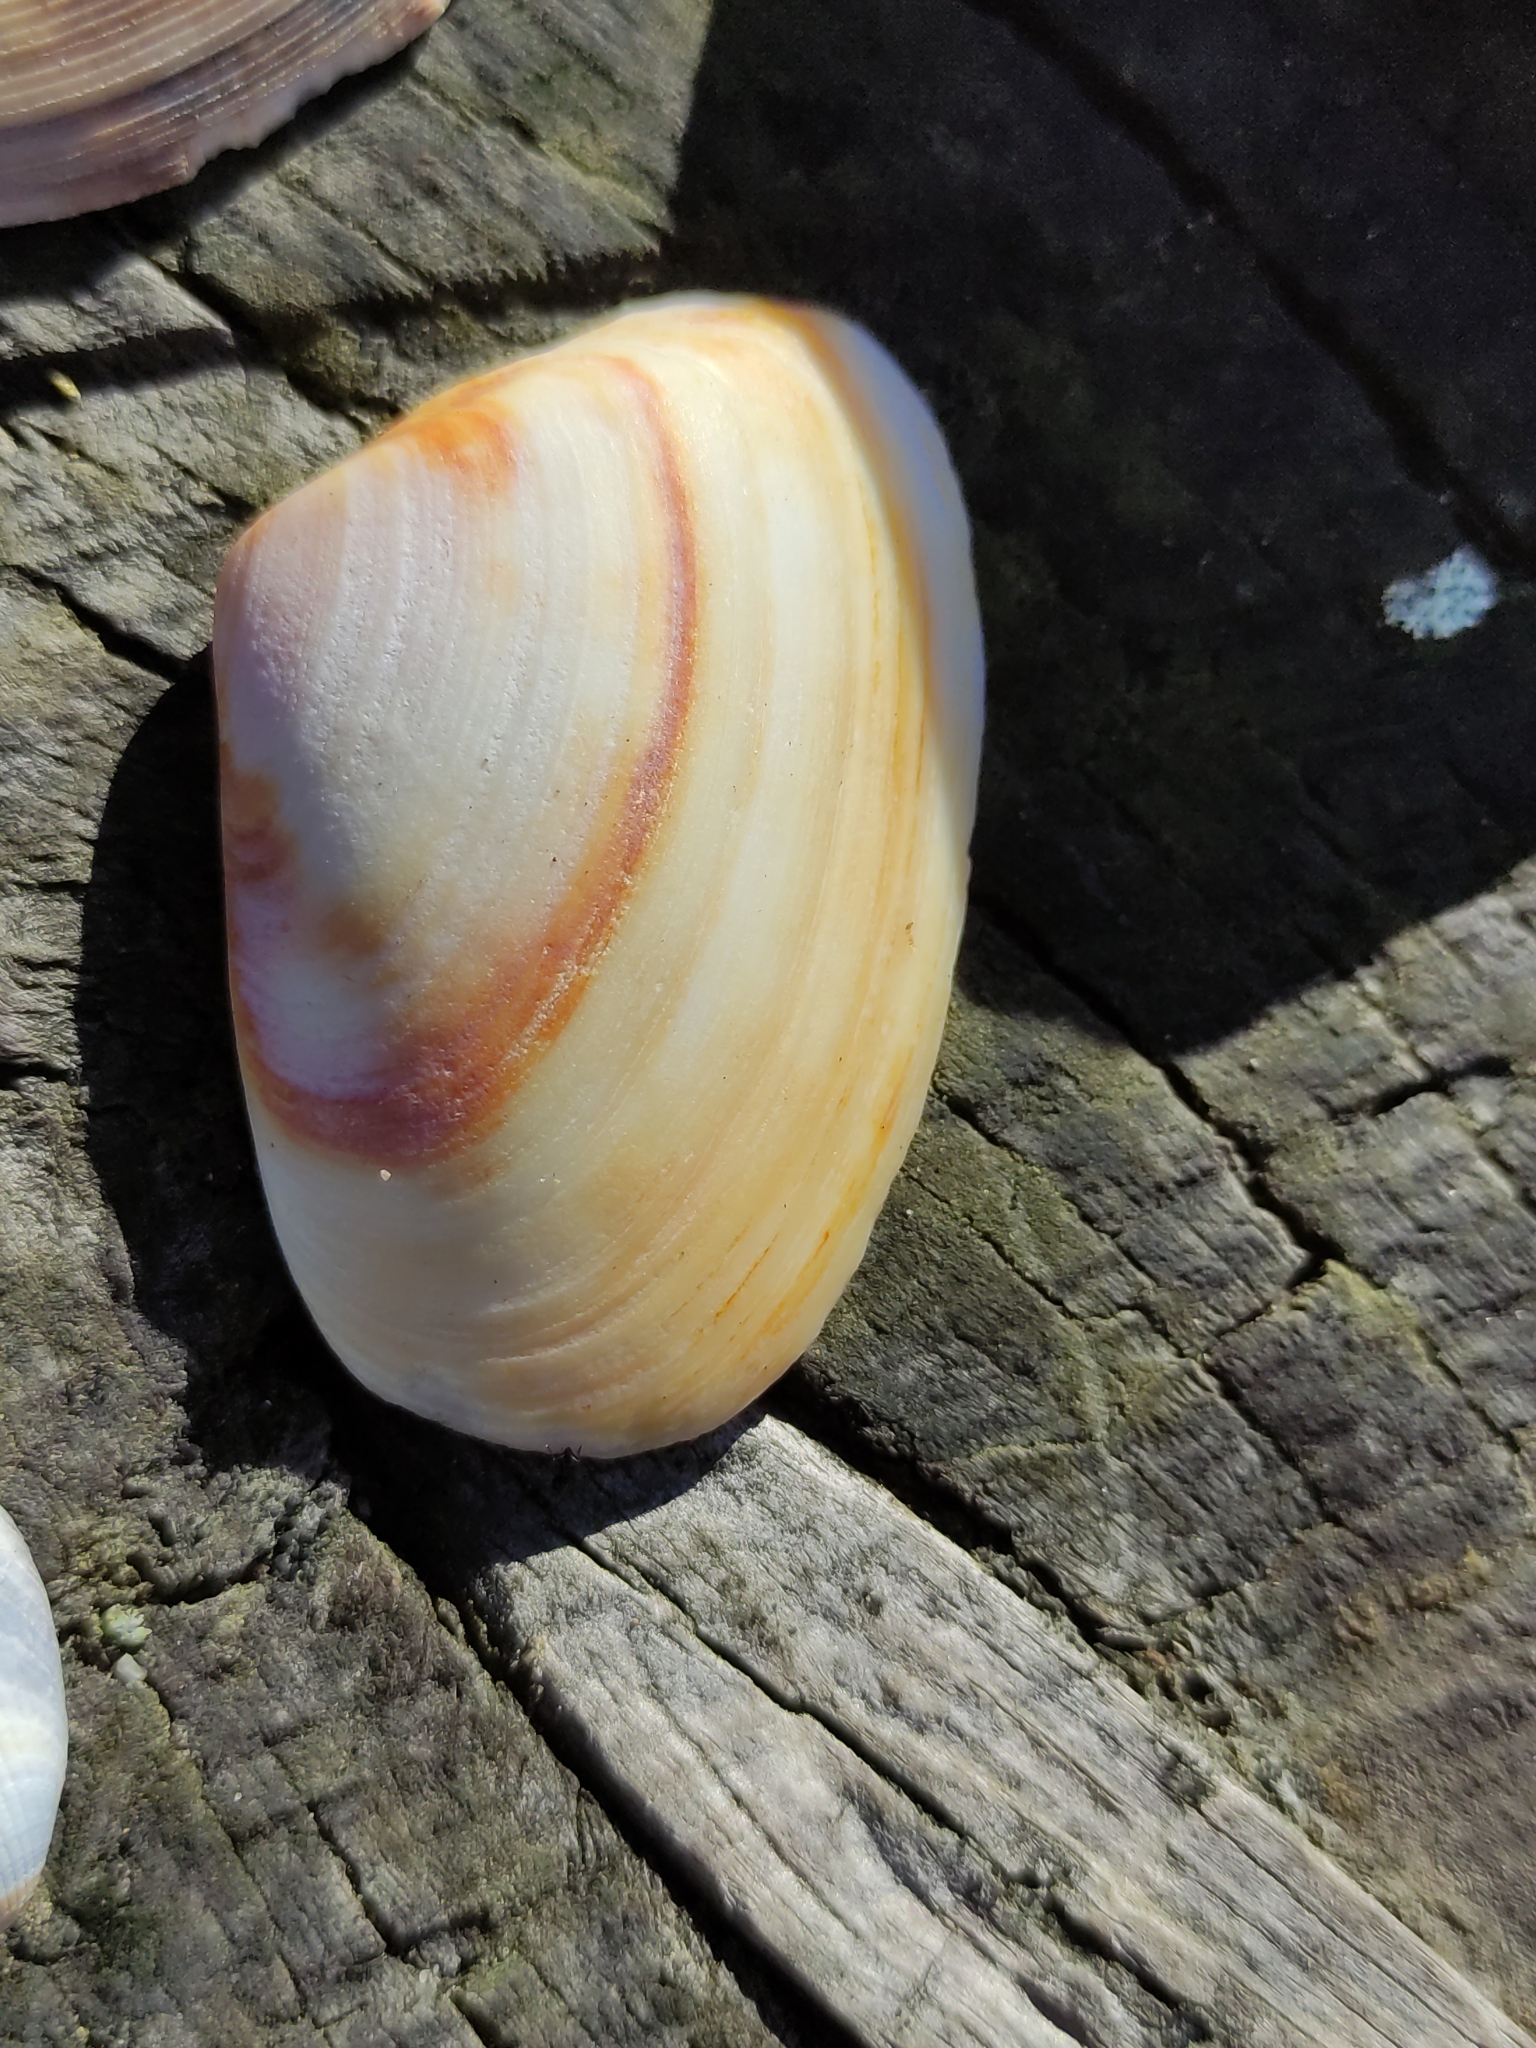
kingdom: Animalia
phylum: Mollusca
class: Bivalvia
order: Venerida
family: Mesodesmatidae
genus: Paphies
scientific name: Paphies subtriangulata
